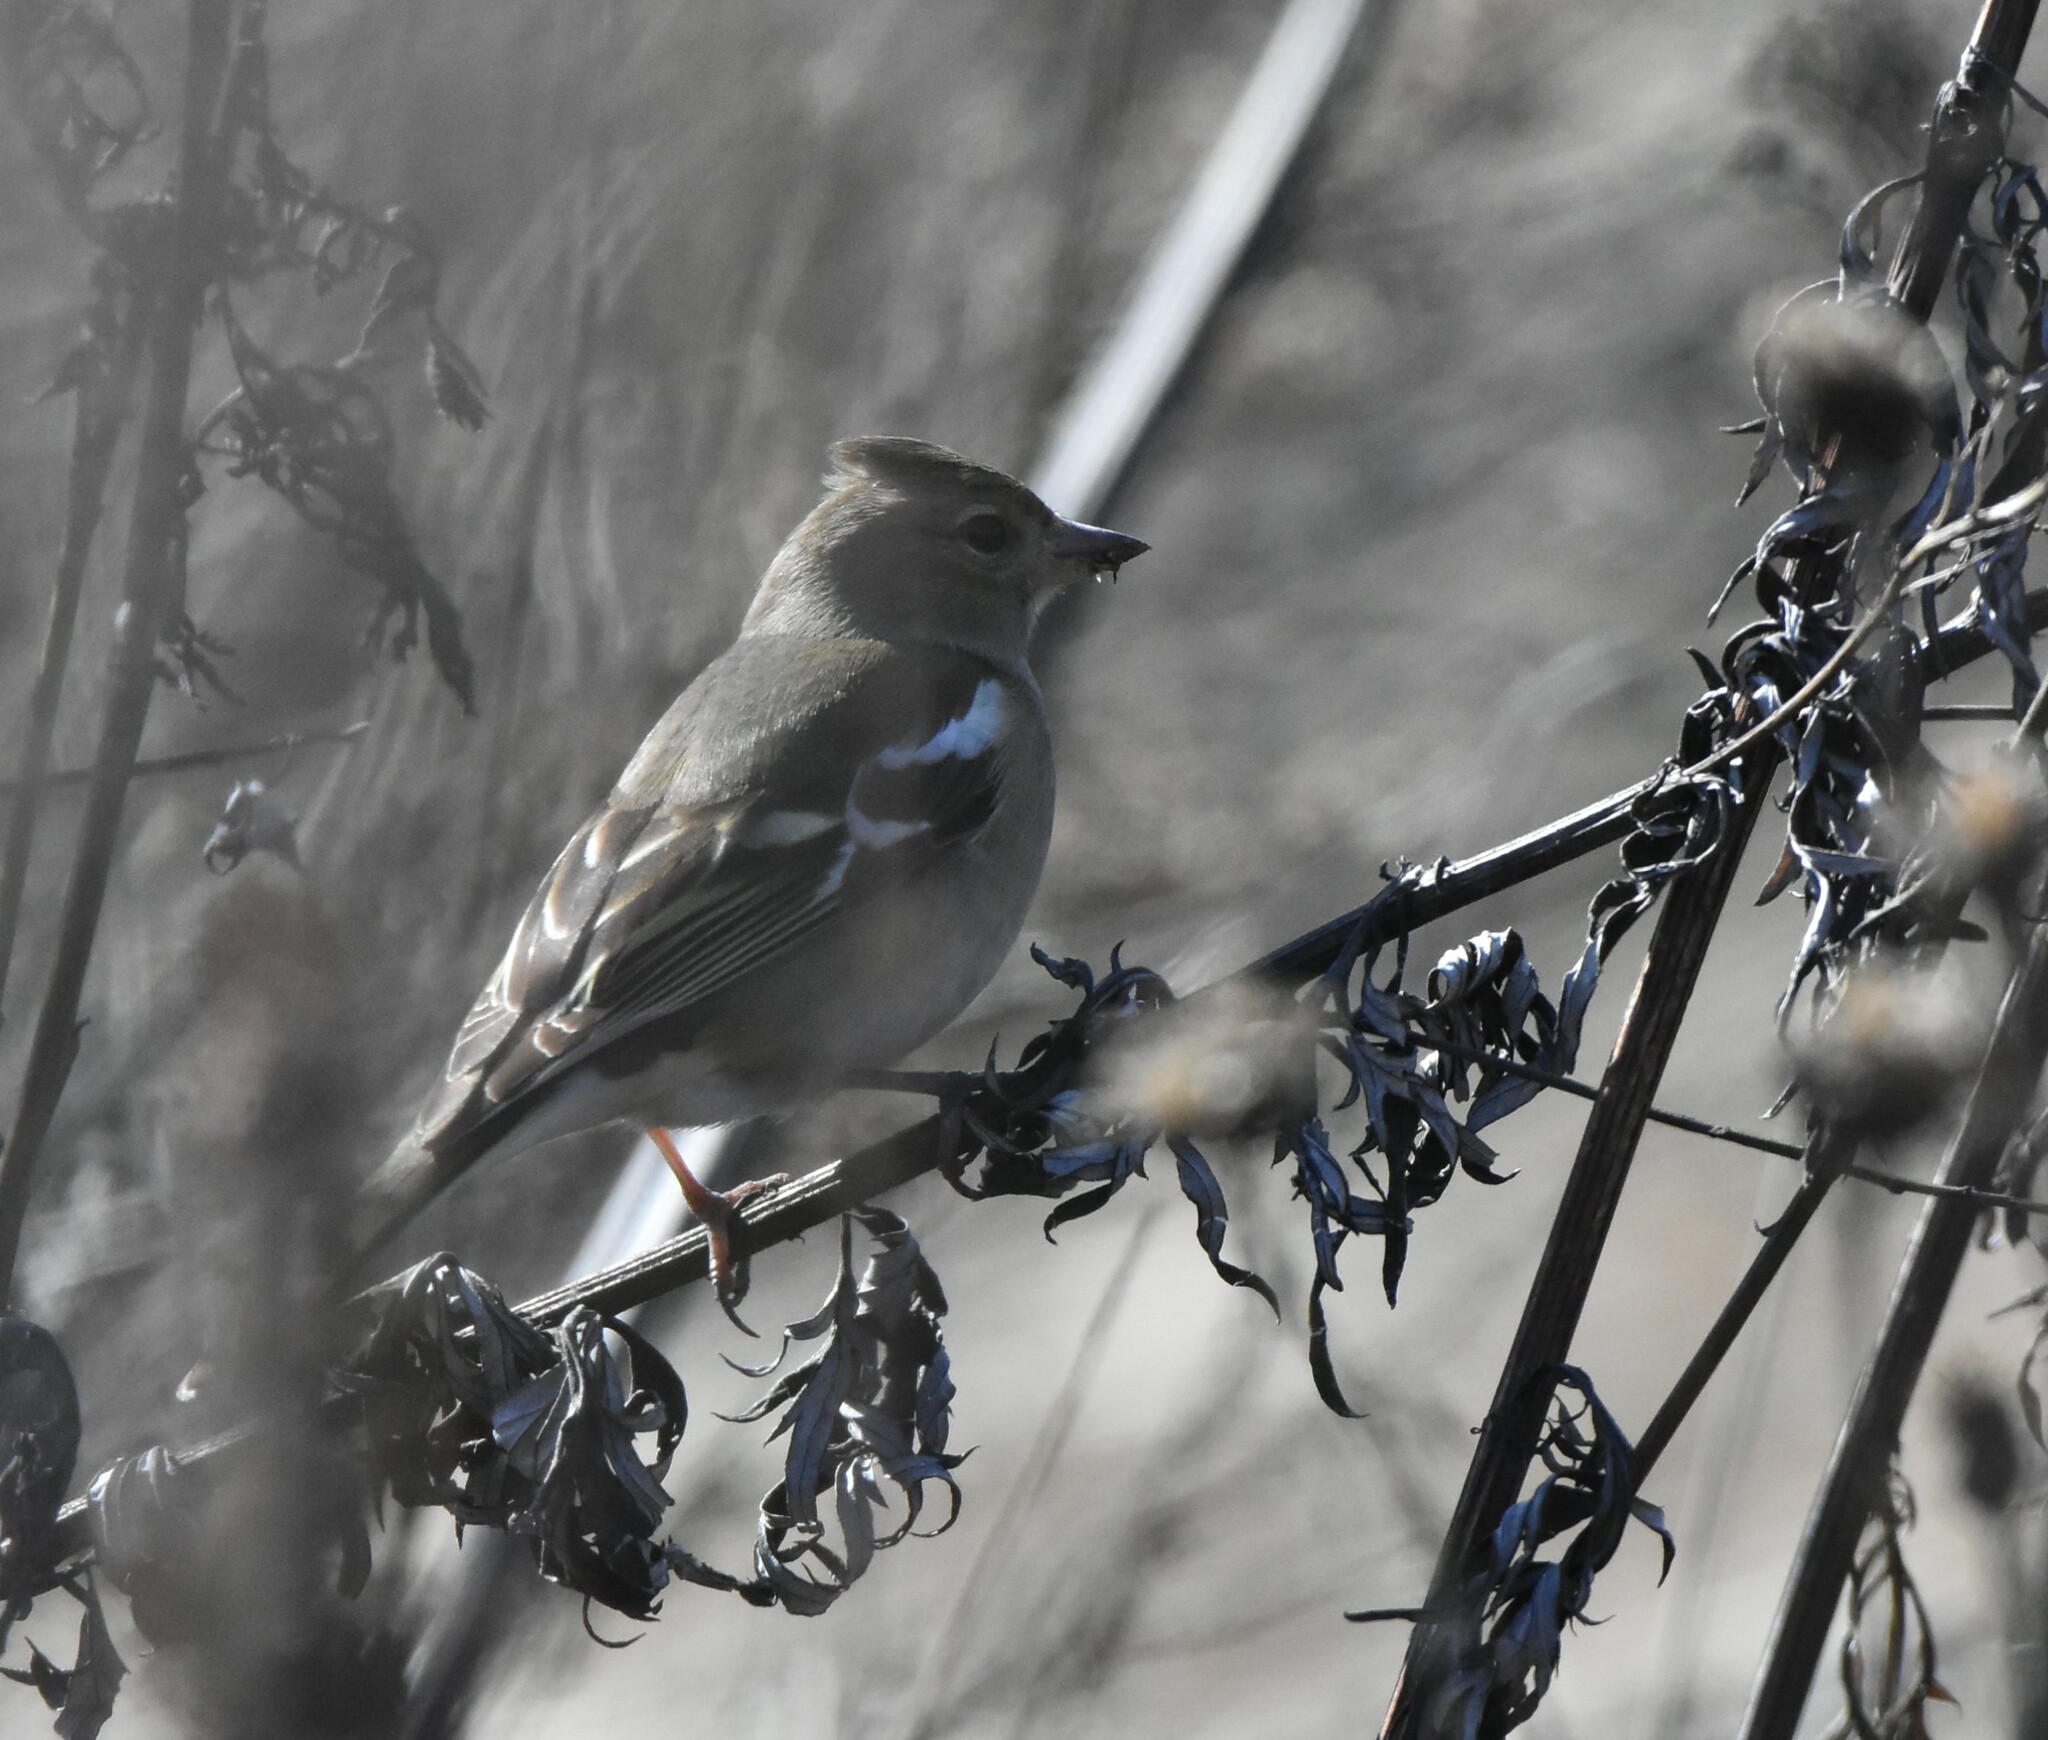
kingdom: Animalia
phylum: Chordata
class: Aves
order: Passeriformes
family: Fringillidae
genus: Fringilla
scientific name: Fringilla coelebs
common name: Common chaffinch
